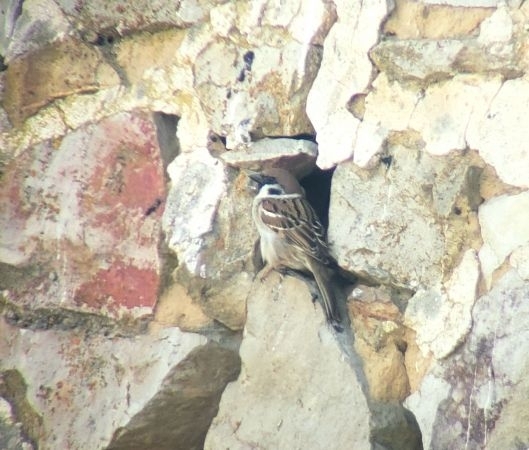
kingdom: Animalia
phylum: Chordata
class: Aves
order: Passeriformes
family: Passeridae
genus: Passer
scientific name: Passer montanus
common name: Eurasian tree sparrow
